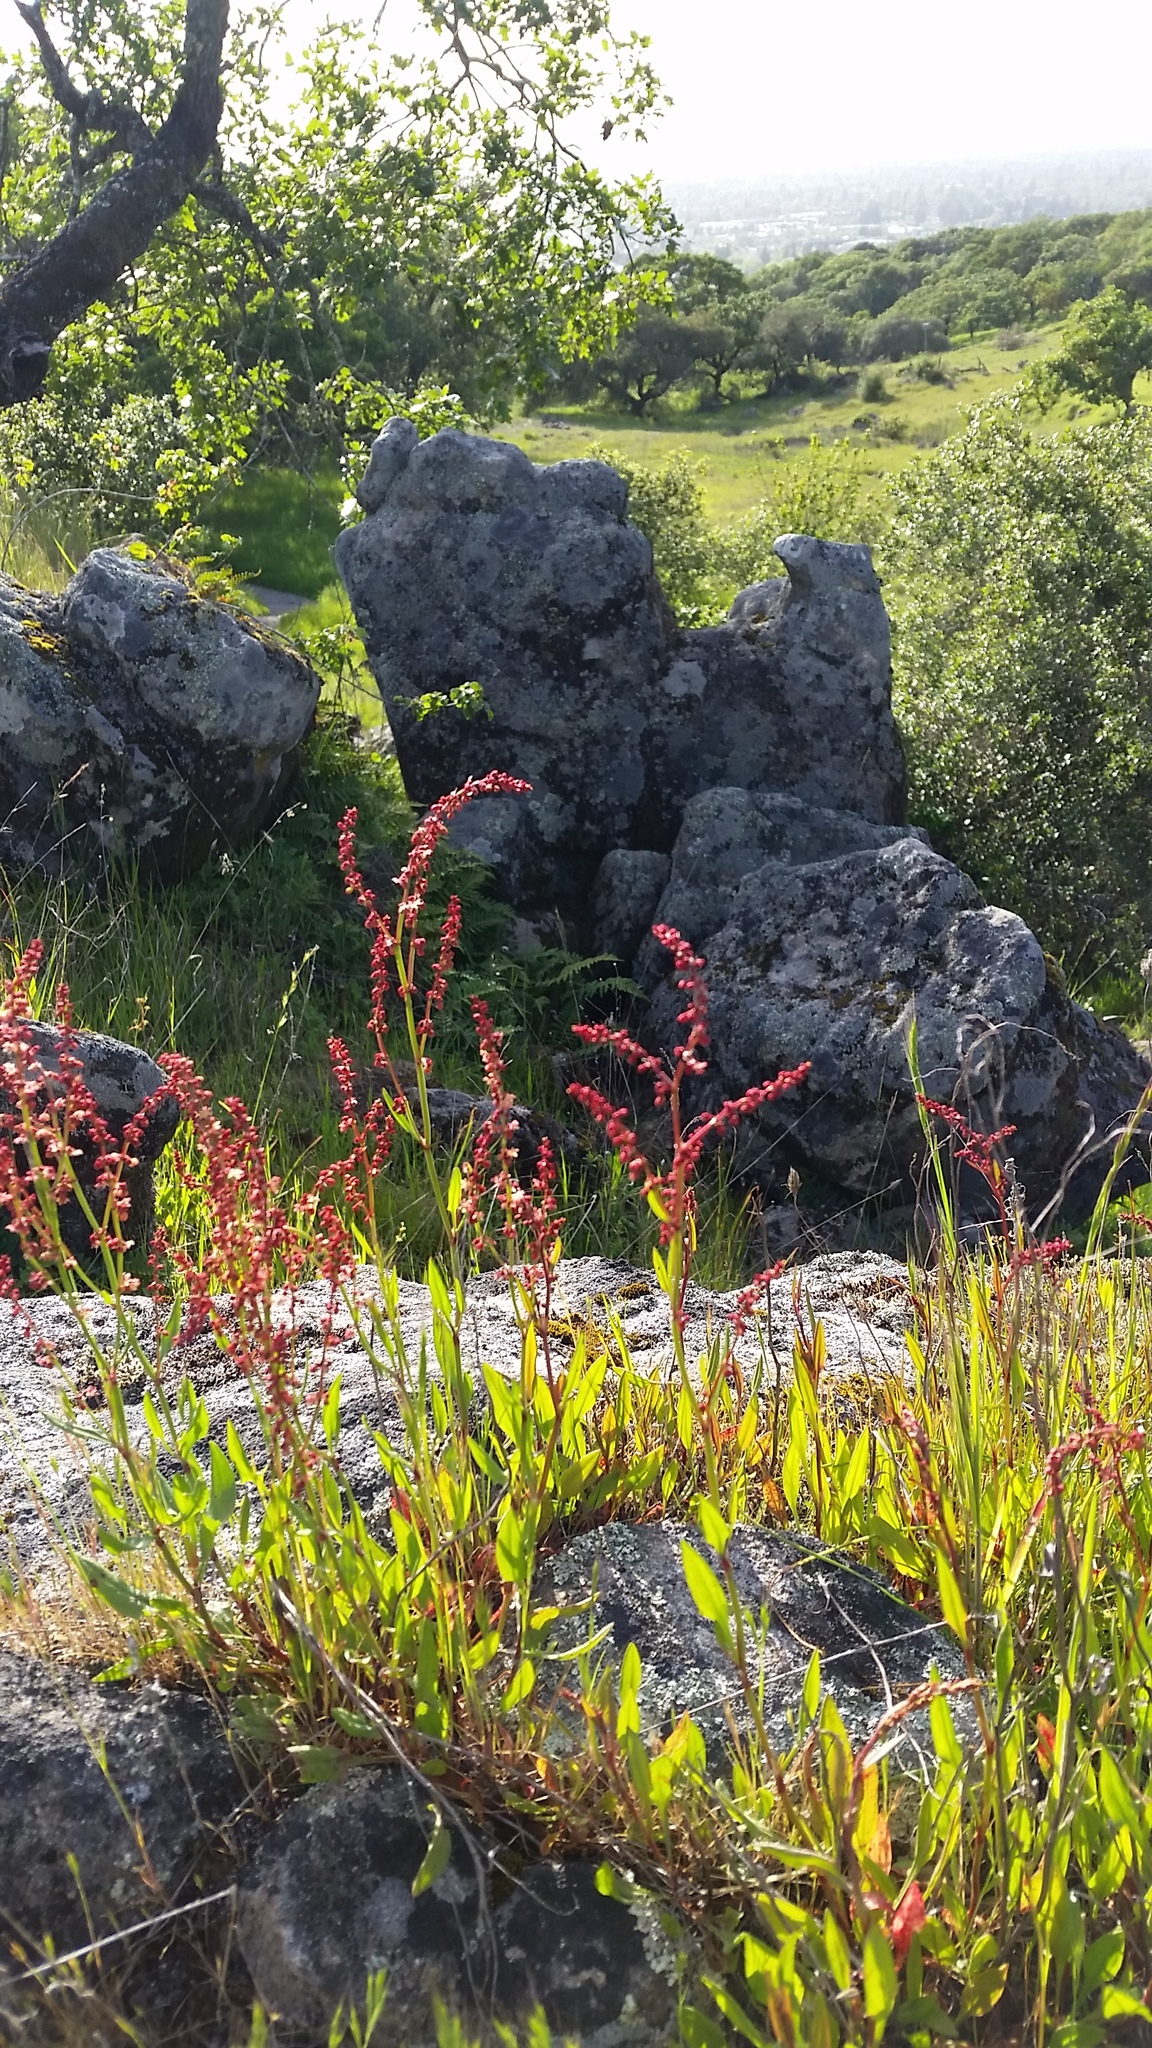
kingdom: Plantae
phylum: Tracheophyta
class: Magnoliopsida
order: Caryophyllales
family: Polygonaceae
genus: Rumex
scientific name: Rumex acetosella
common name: Common sheep sorrel
